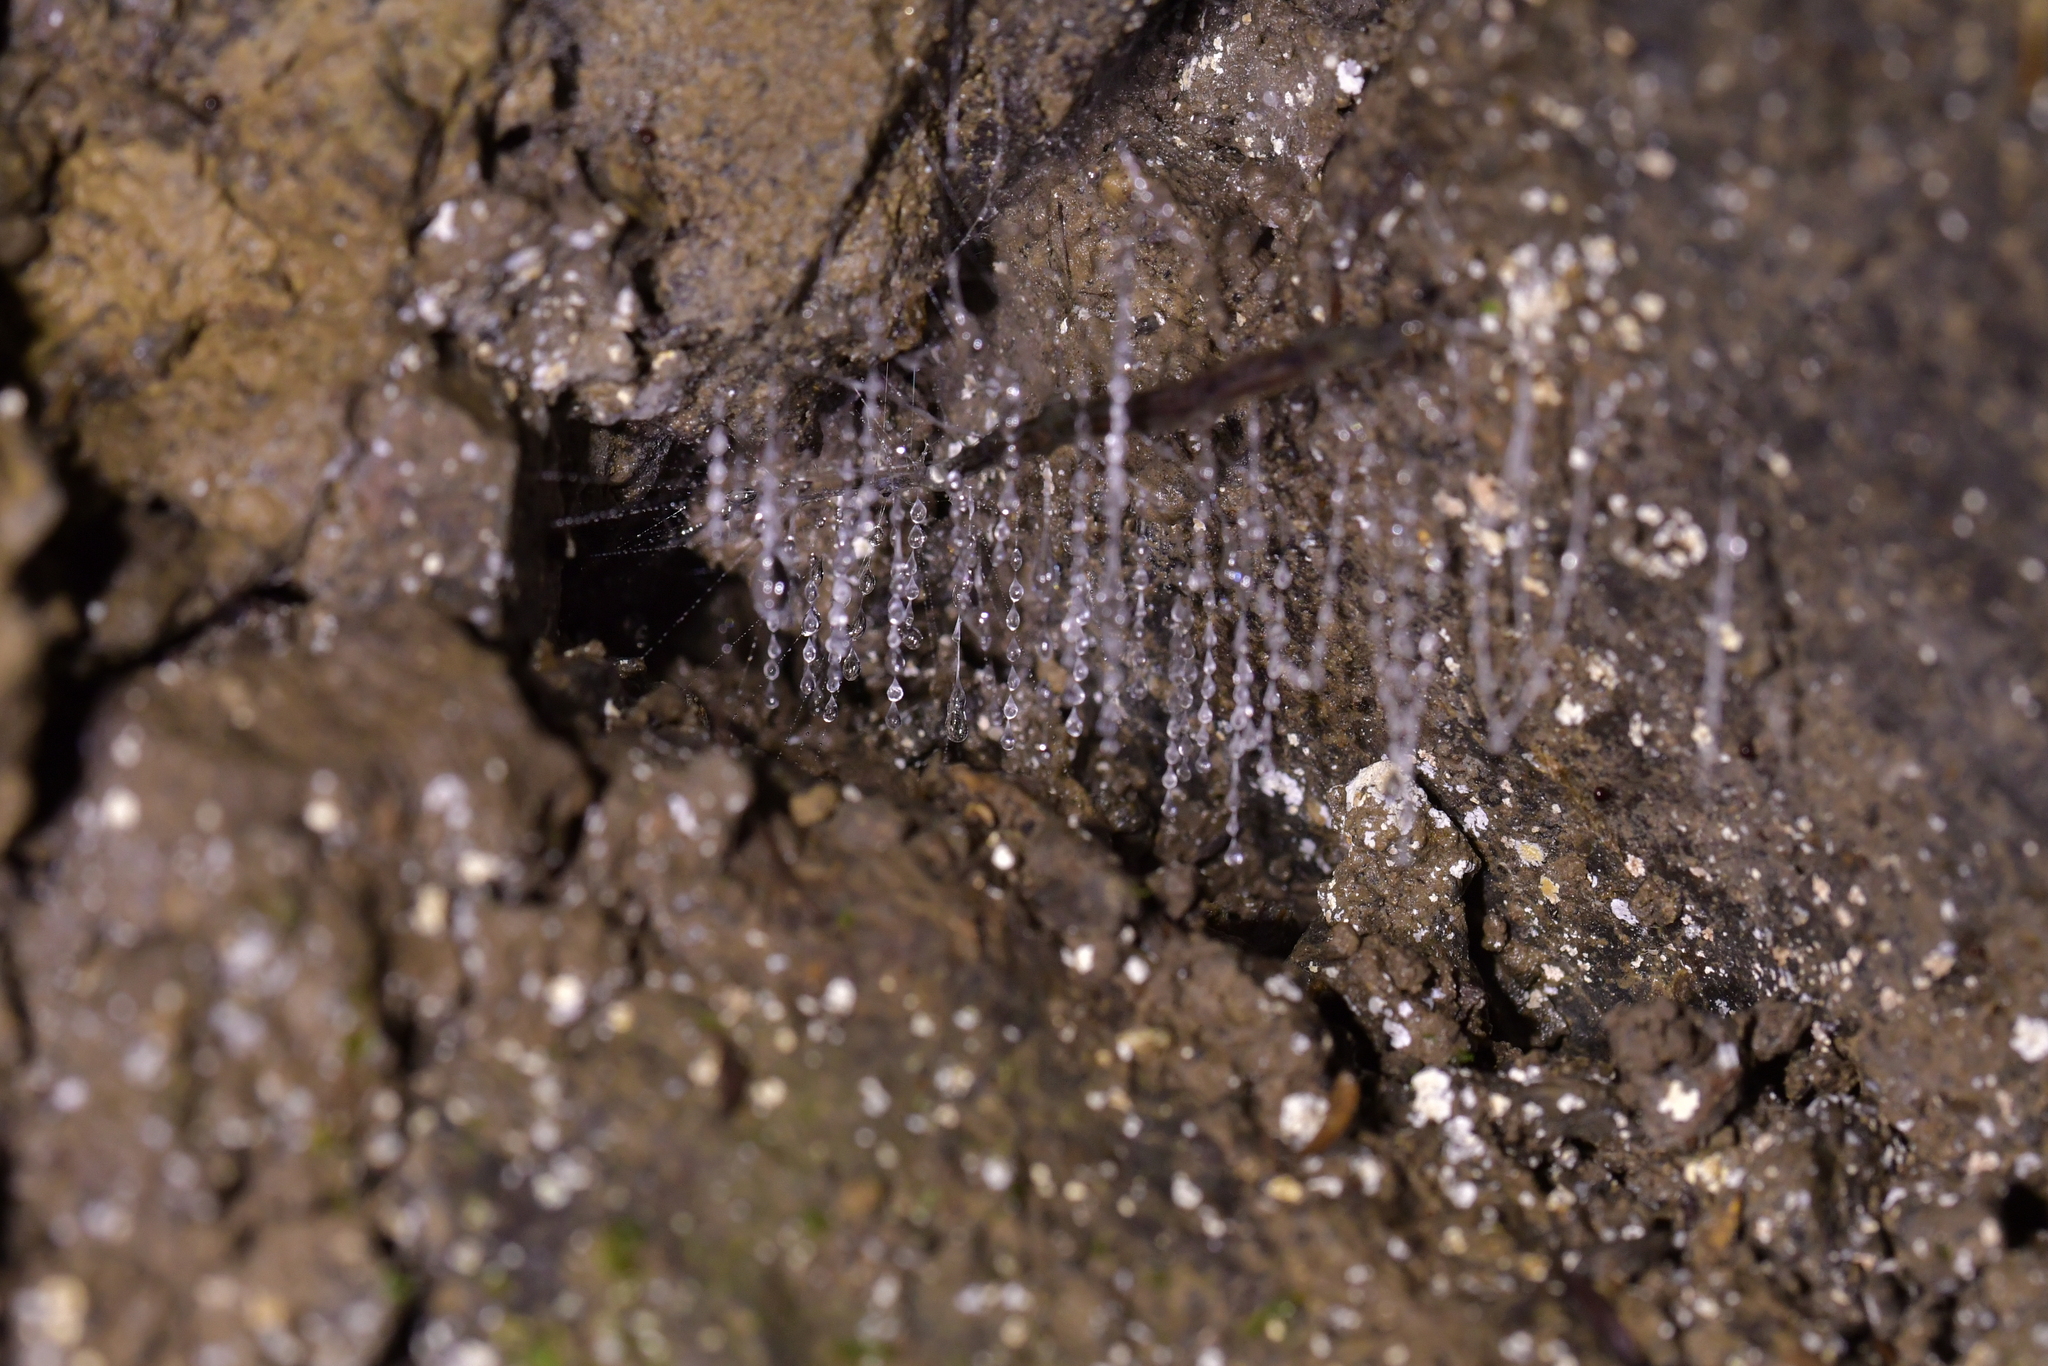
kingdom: Animalia
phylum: Arthropoda
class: Insecta
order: Diptera
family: Keroplatidae
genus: Arachnocampa
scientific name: Arachnocampa luminosa
